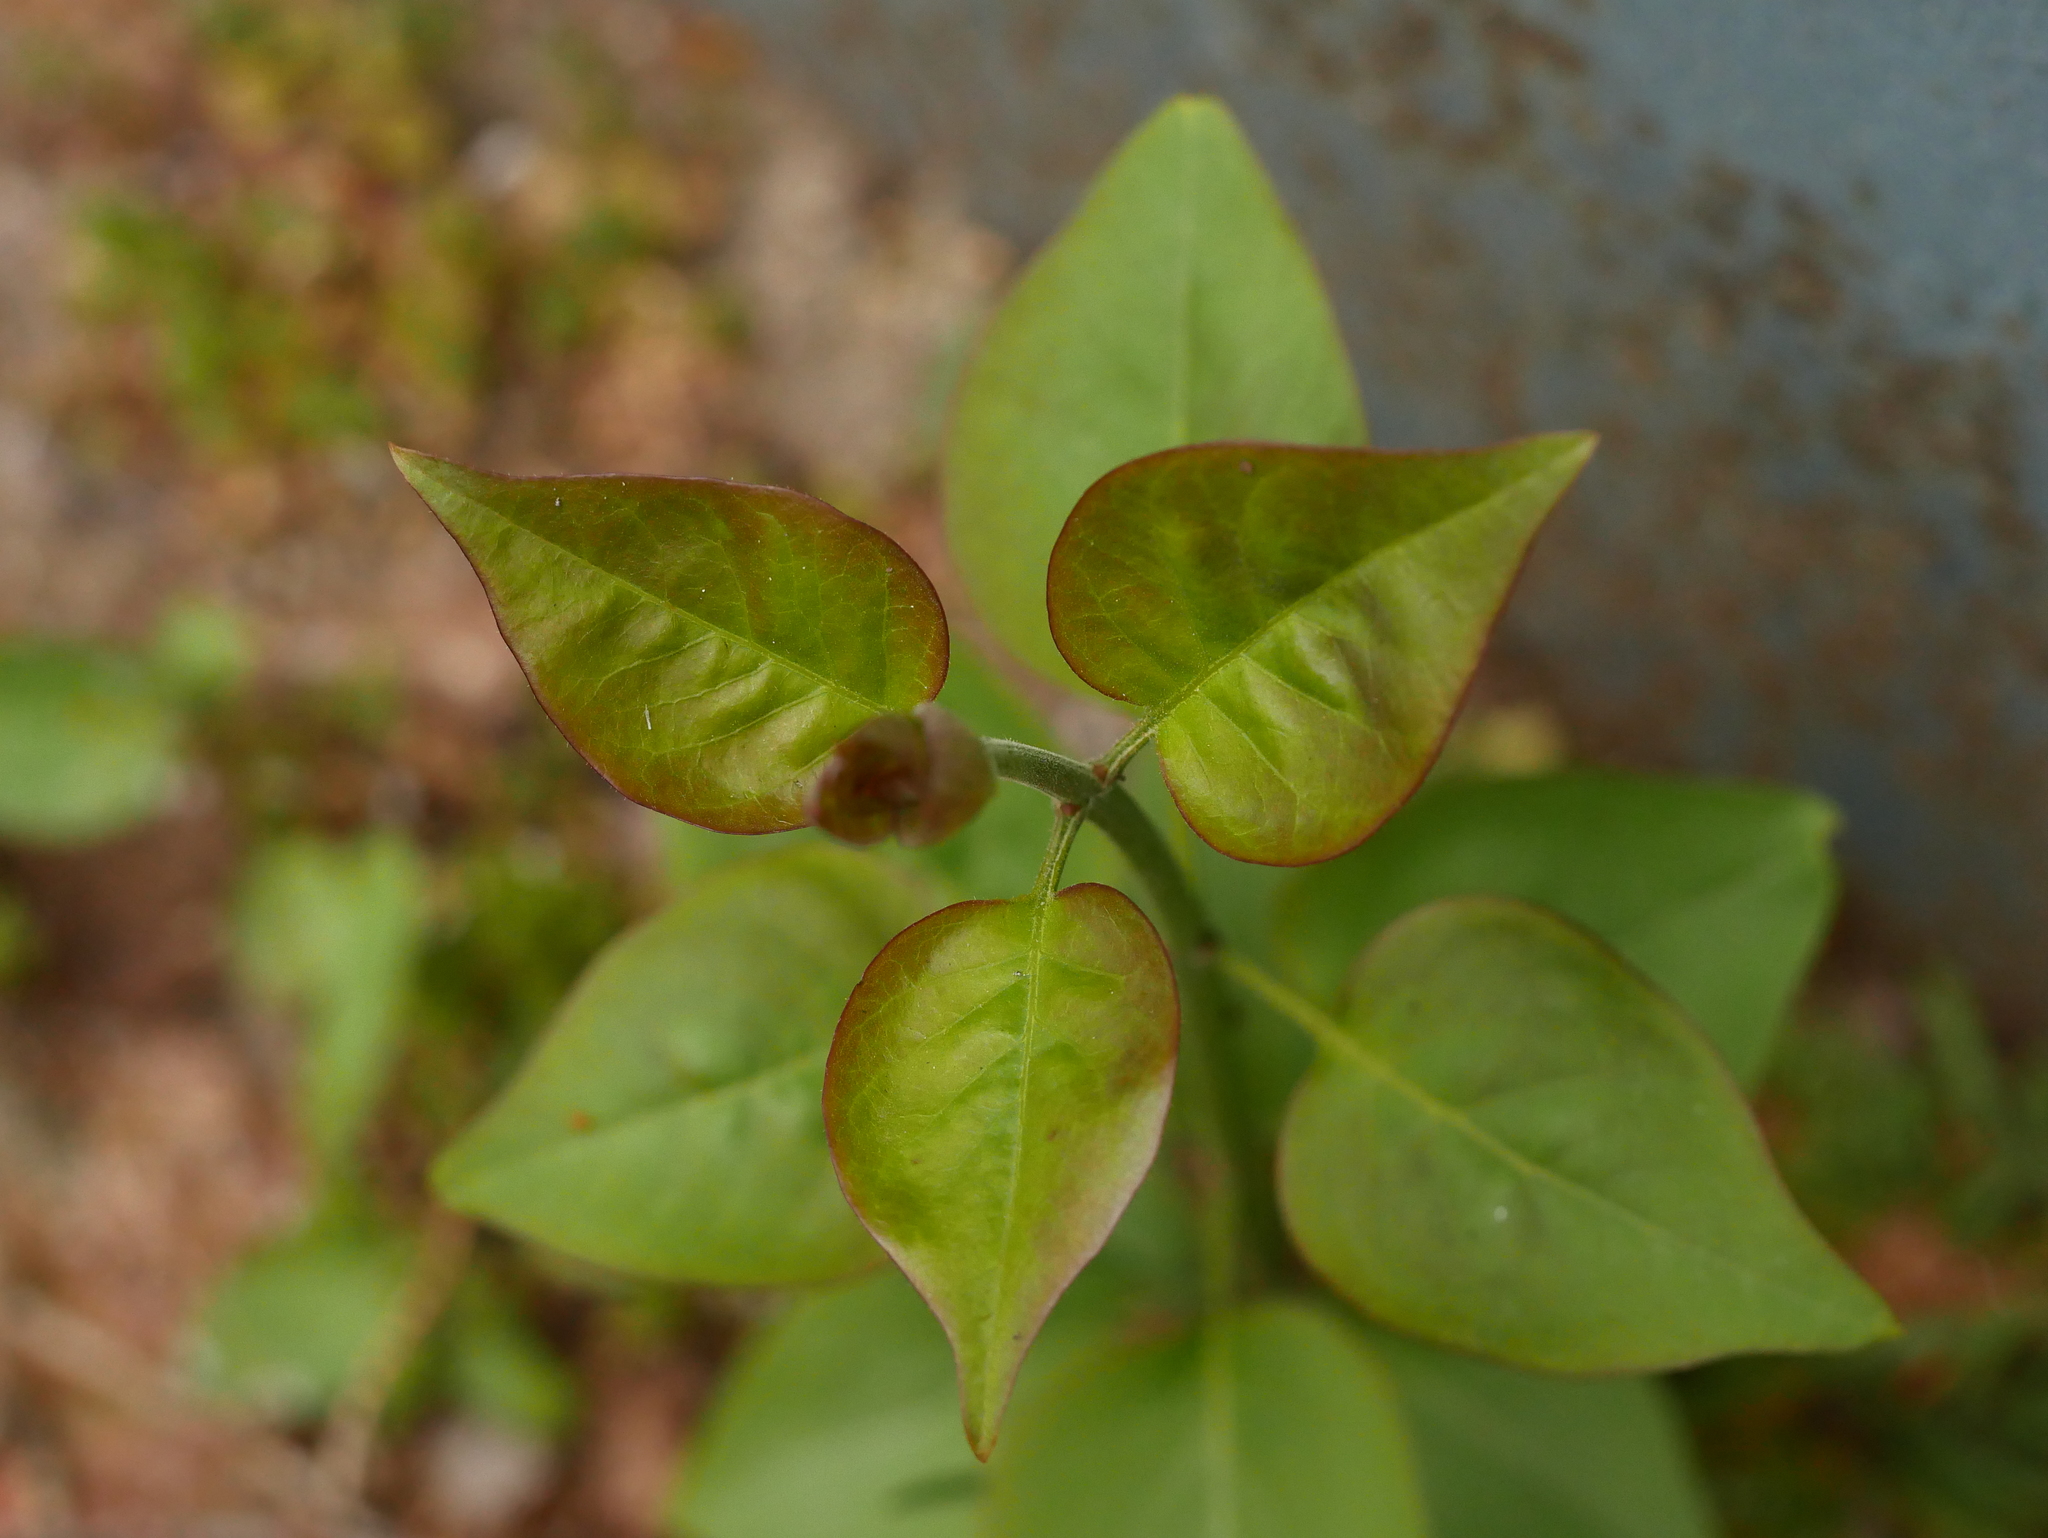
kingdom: Plantae
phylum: Tracheophyta
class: Magnoliopsida
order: Lamiales
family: Oleaceae
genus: Syringa
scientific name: Syringa vulgaris
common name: Common lilac
